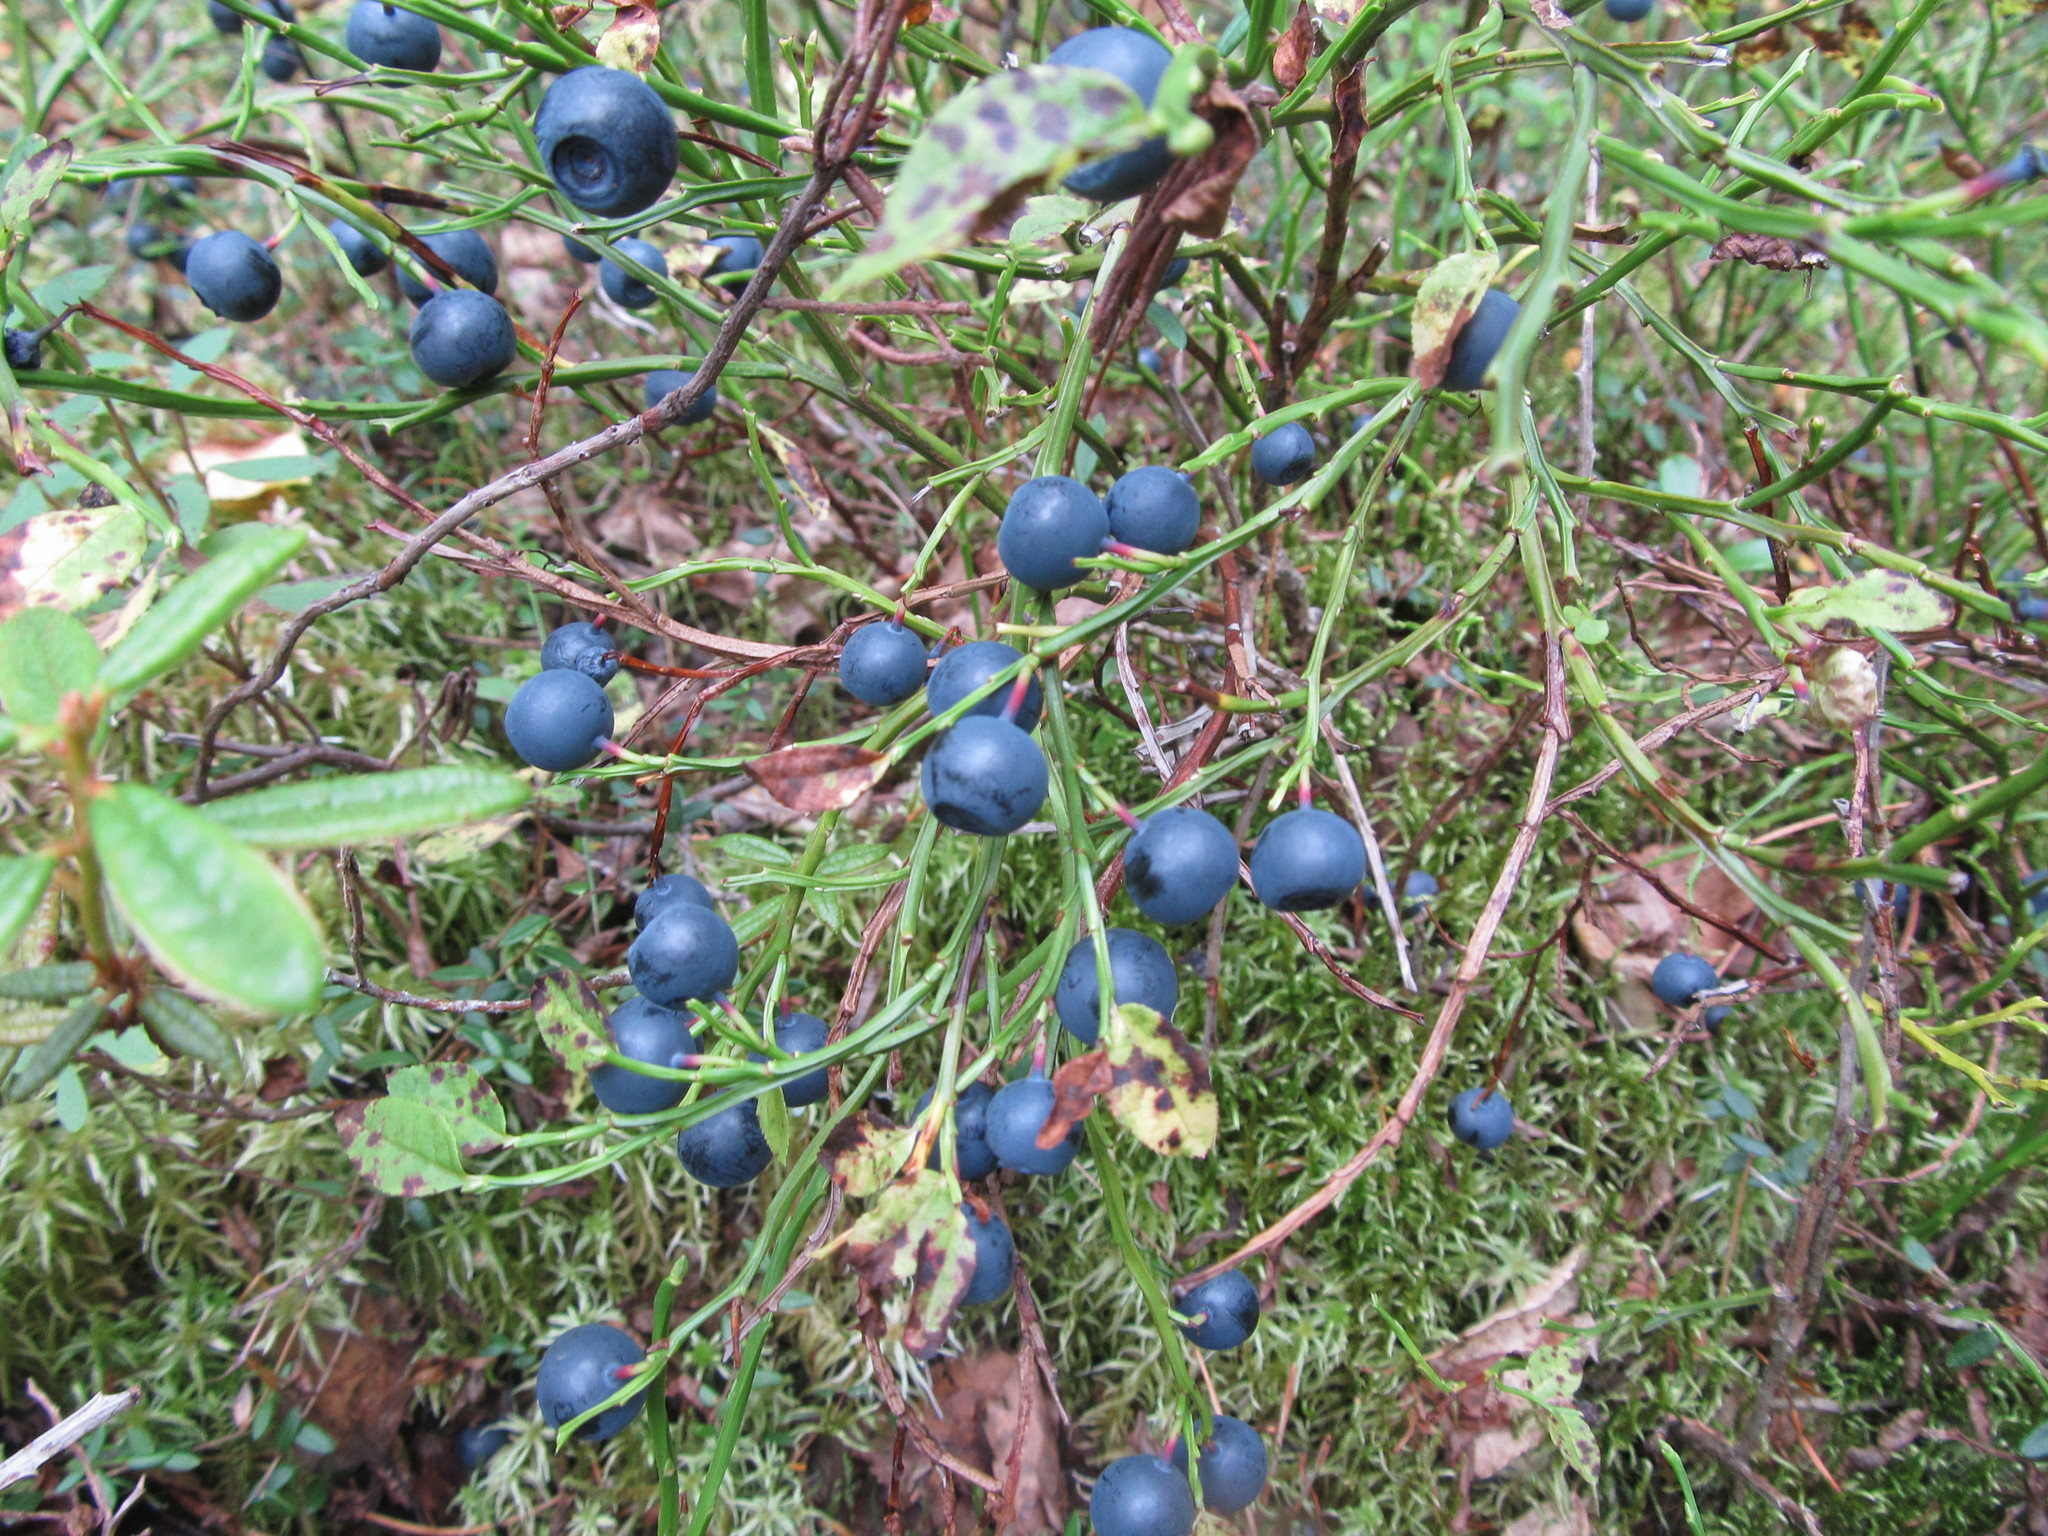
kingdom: Plantae
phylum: Tracheophyta
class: Magnoliopsida
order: Ericales
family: Ericaceae
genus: Vaccinium
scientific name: Vaccinium myrtillus
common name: Bilberry
